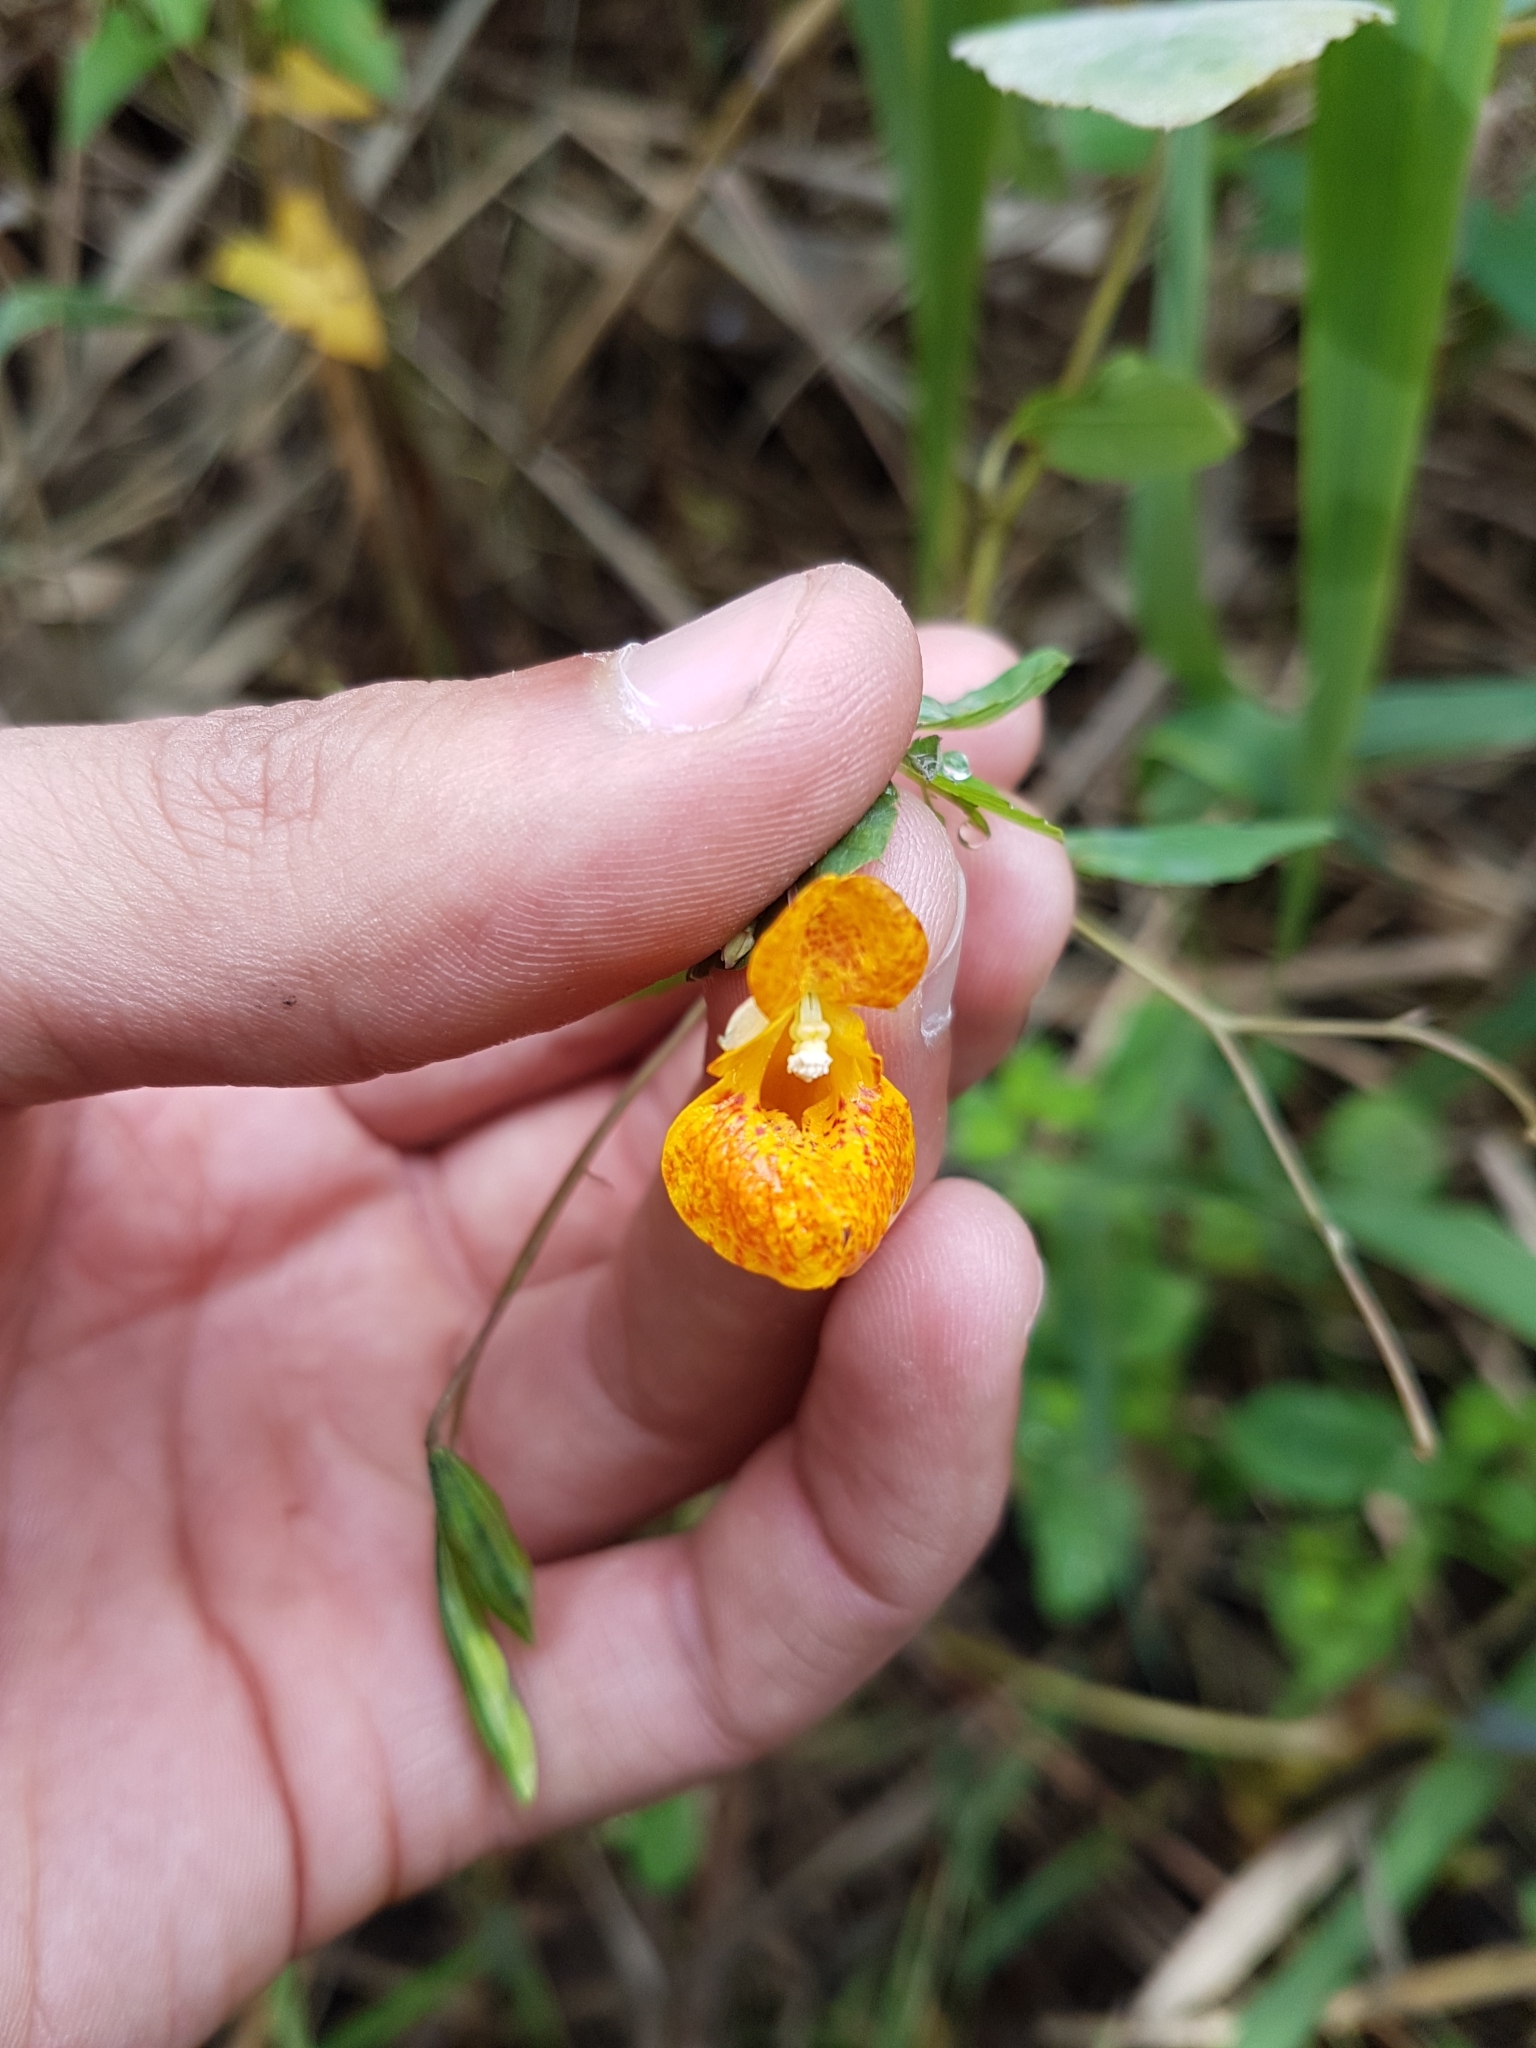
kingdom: Plantae
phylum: Tracheophyta
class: Magnoliopsida
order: Ericales
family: Balsaminaceae
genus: Impatiens
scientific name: Impatiens capensis
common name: Orange balsam
